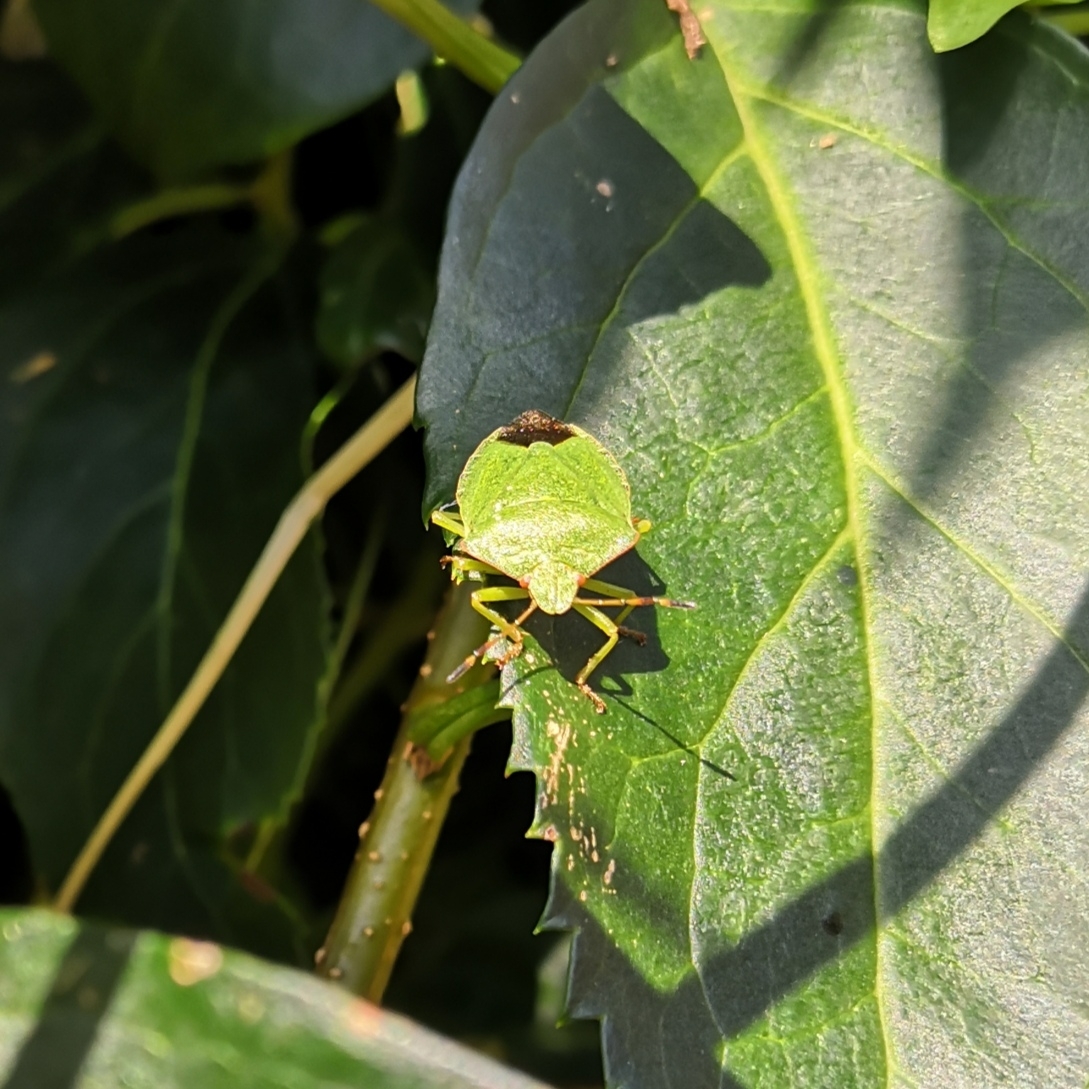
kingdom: Animalia
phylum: Arthropoda
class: Insecta
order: Hemiptera
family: Pentatomidae
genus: Palomena
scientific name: Palomena prasina
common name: Green shieldbug
